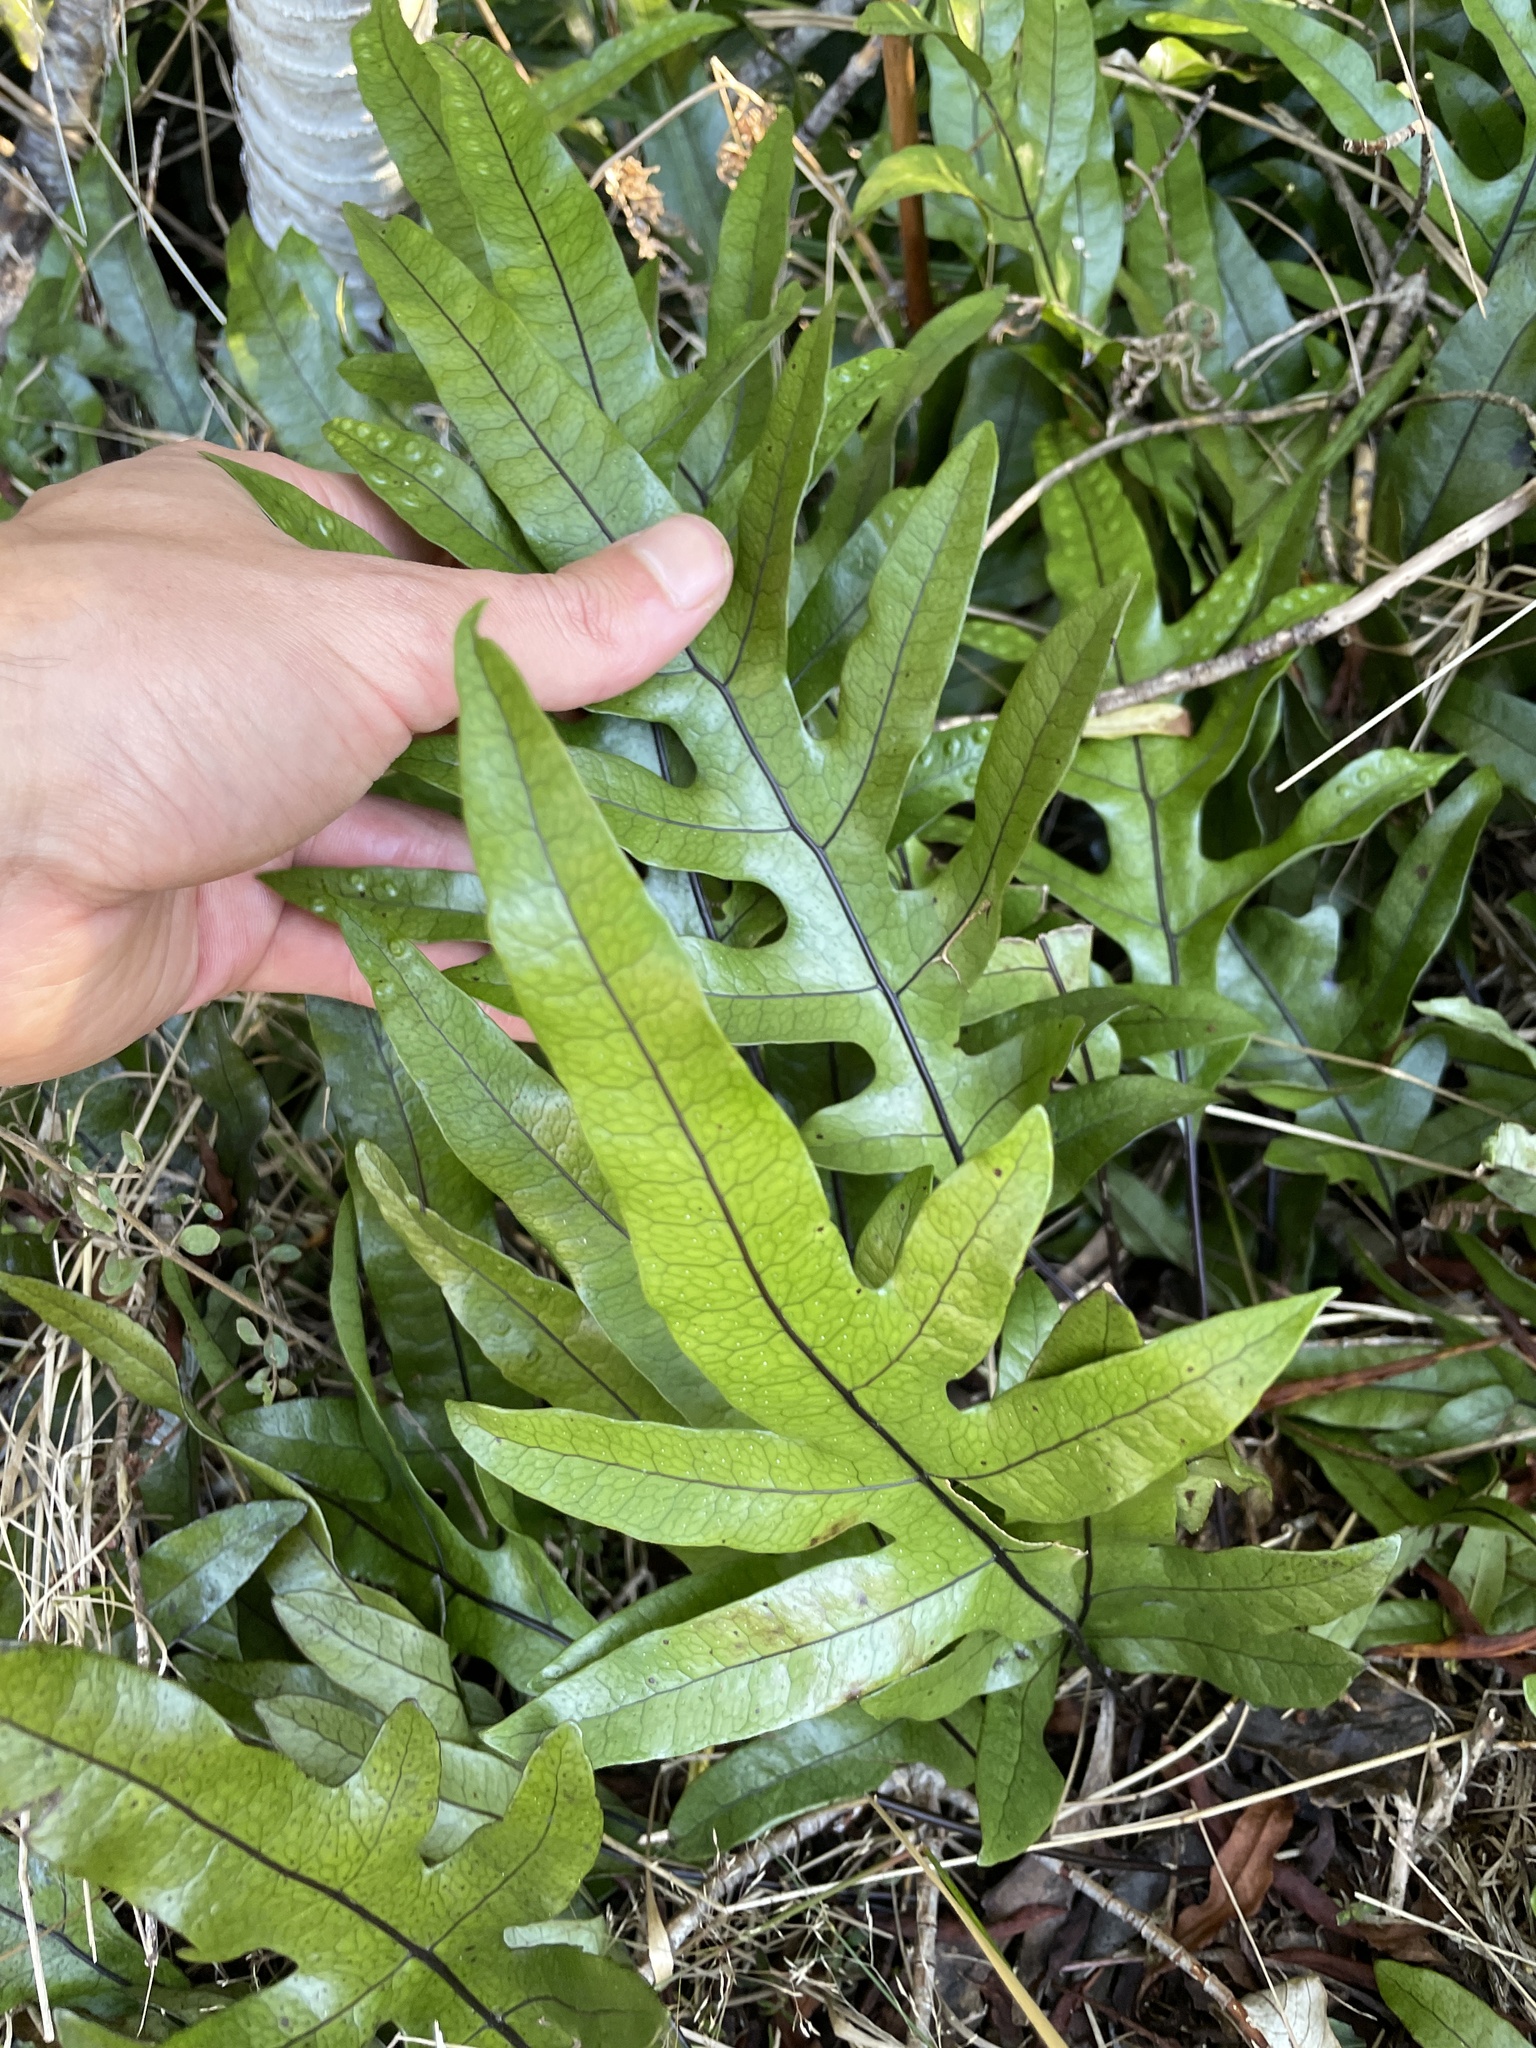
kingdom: Plantae
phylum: Tracheophyta
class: Polypodiopsida
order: Polypodiales
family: Polypodiaceae
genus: Lecanopteris
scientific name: Lecanopteris pustulata
